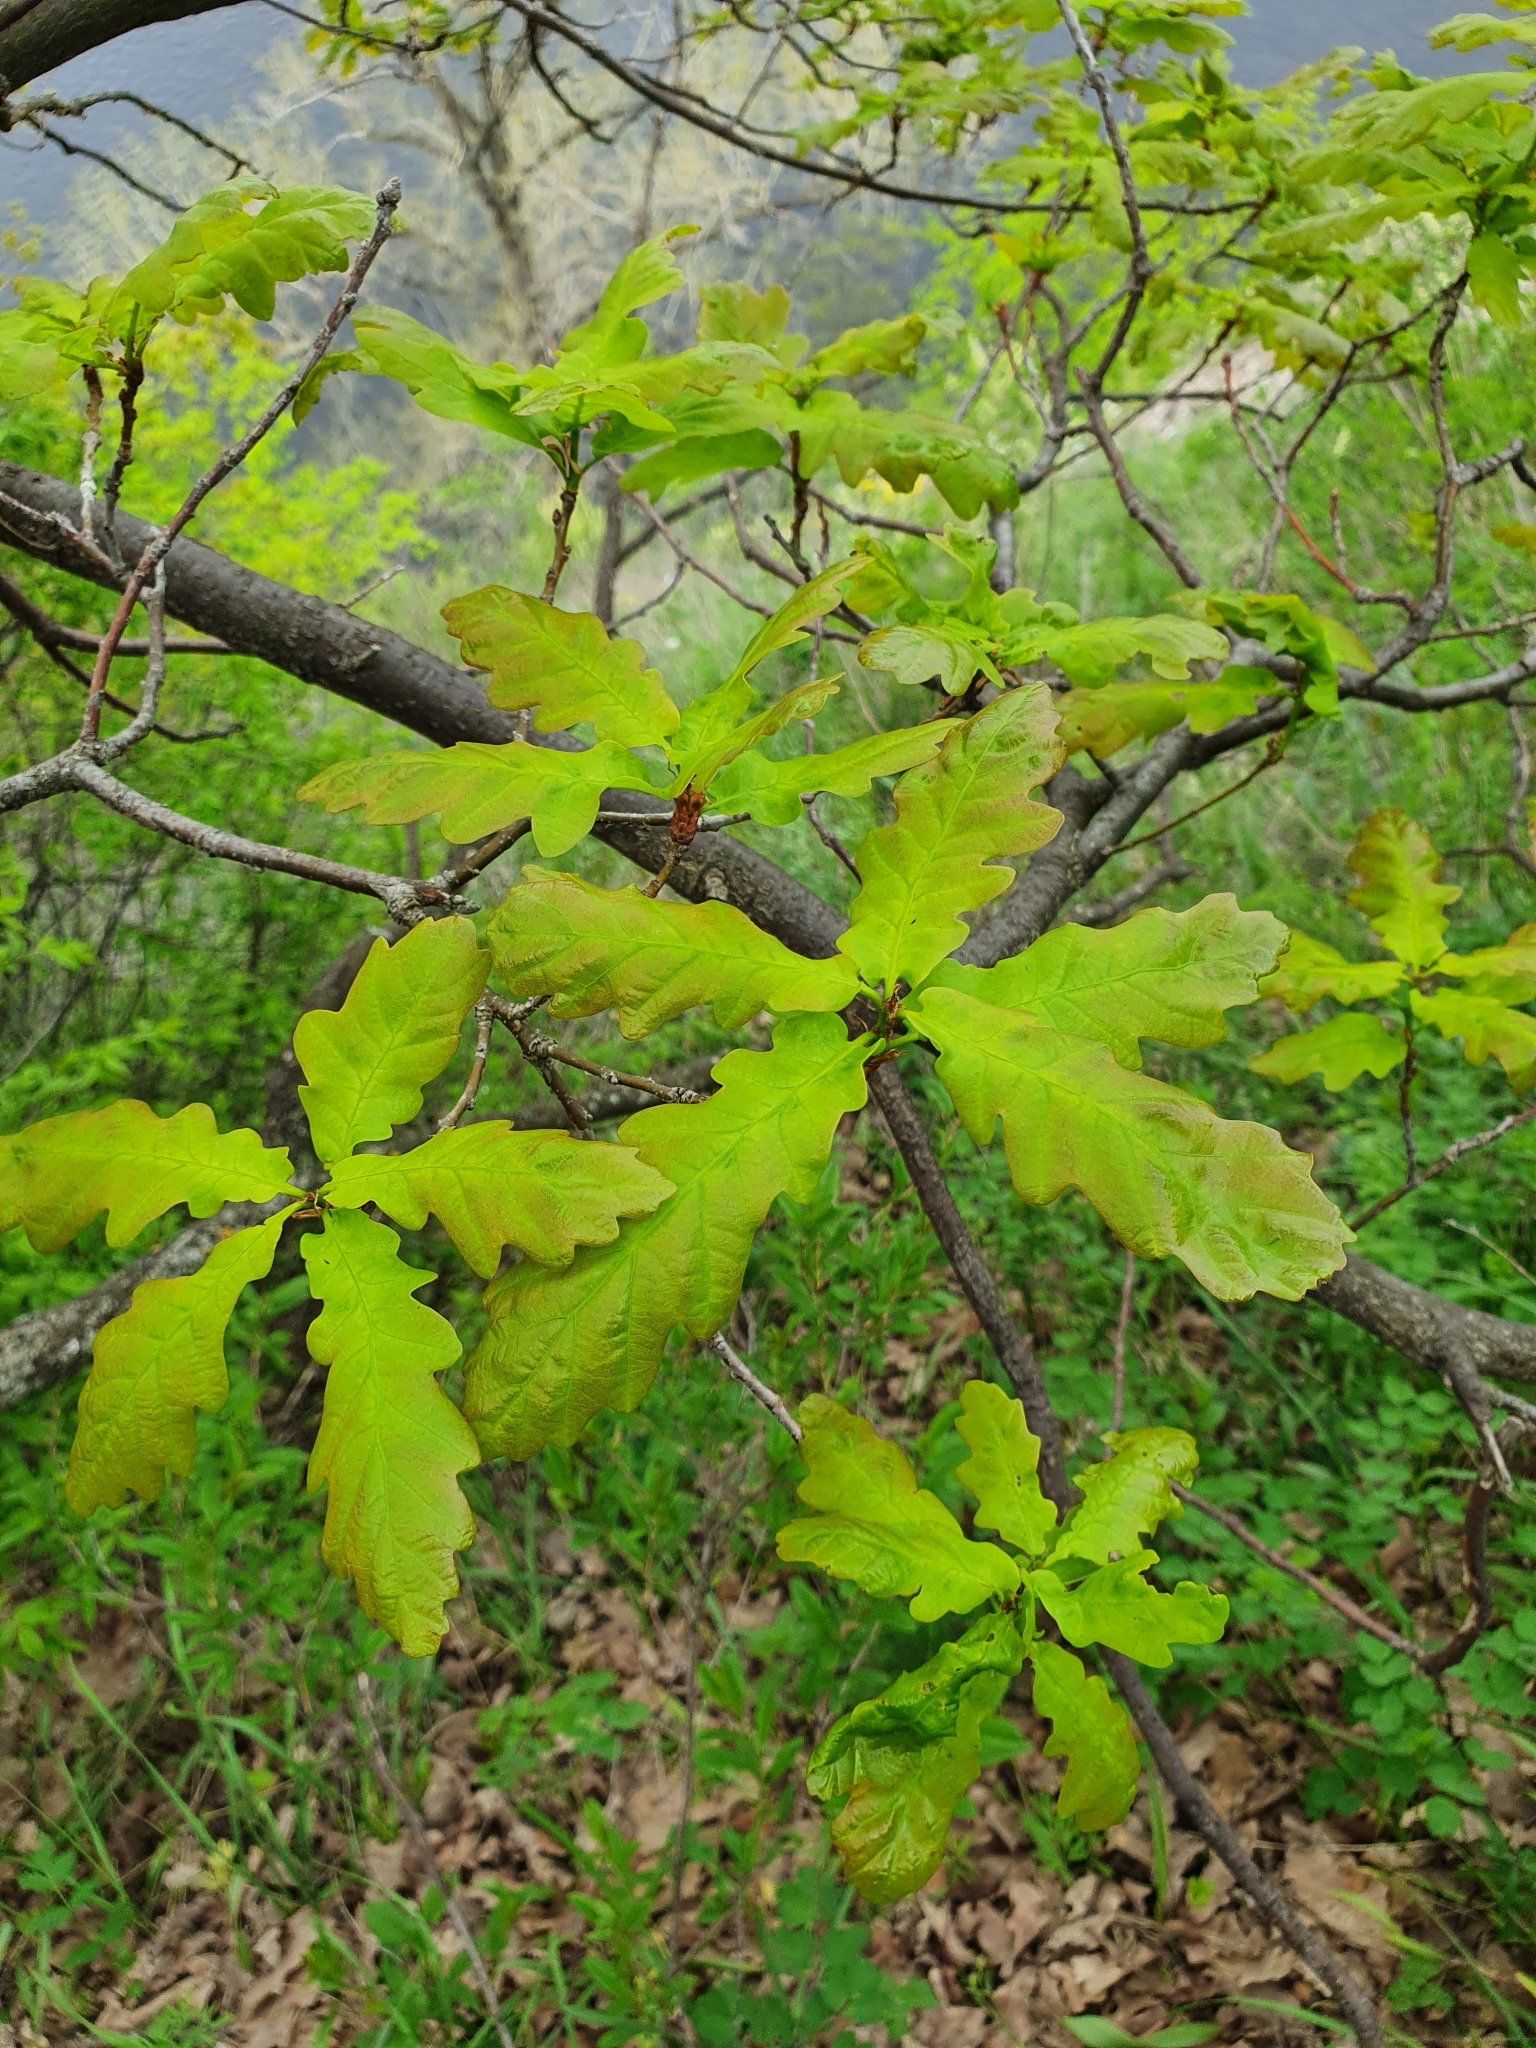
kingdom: Plantae
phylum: Tracheophyta
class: Magnoliopsida
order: Fagales
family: Fagaceae
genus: Quercus
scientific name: Quercus robur
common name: Pedunculate oak
